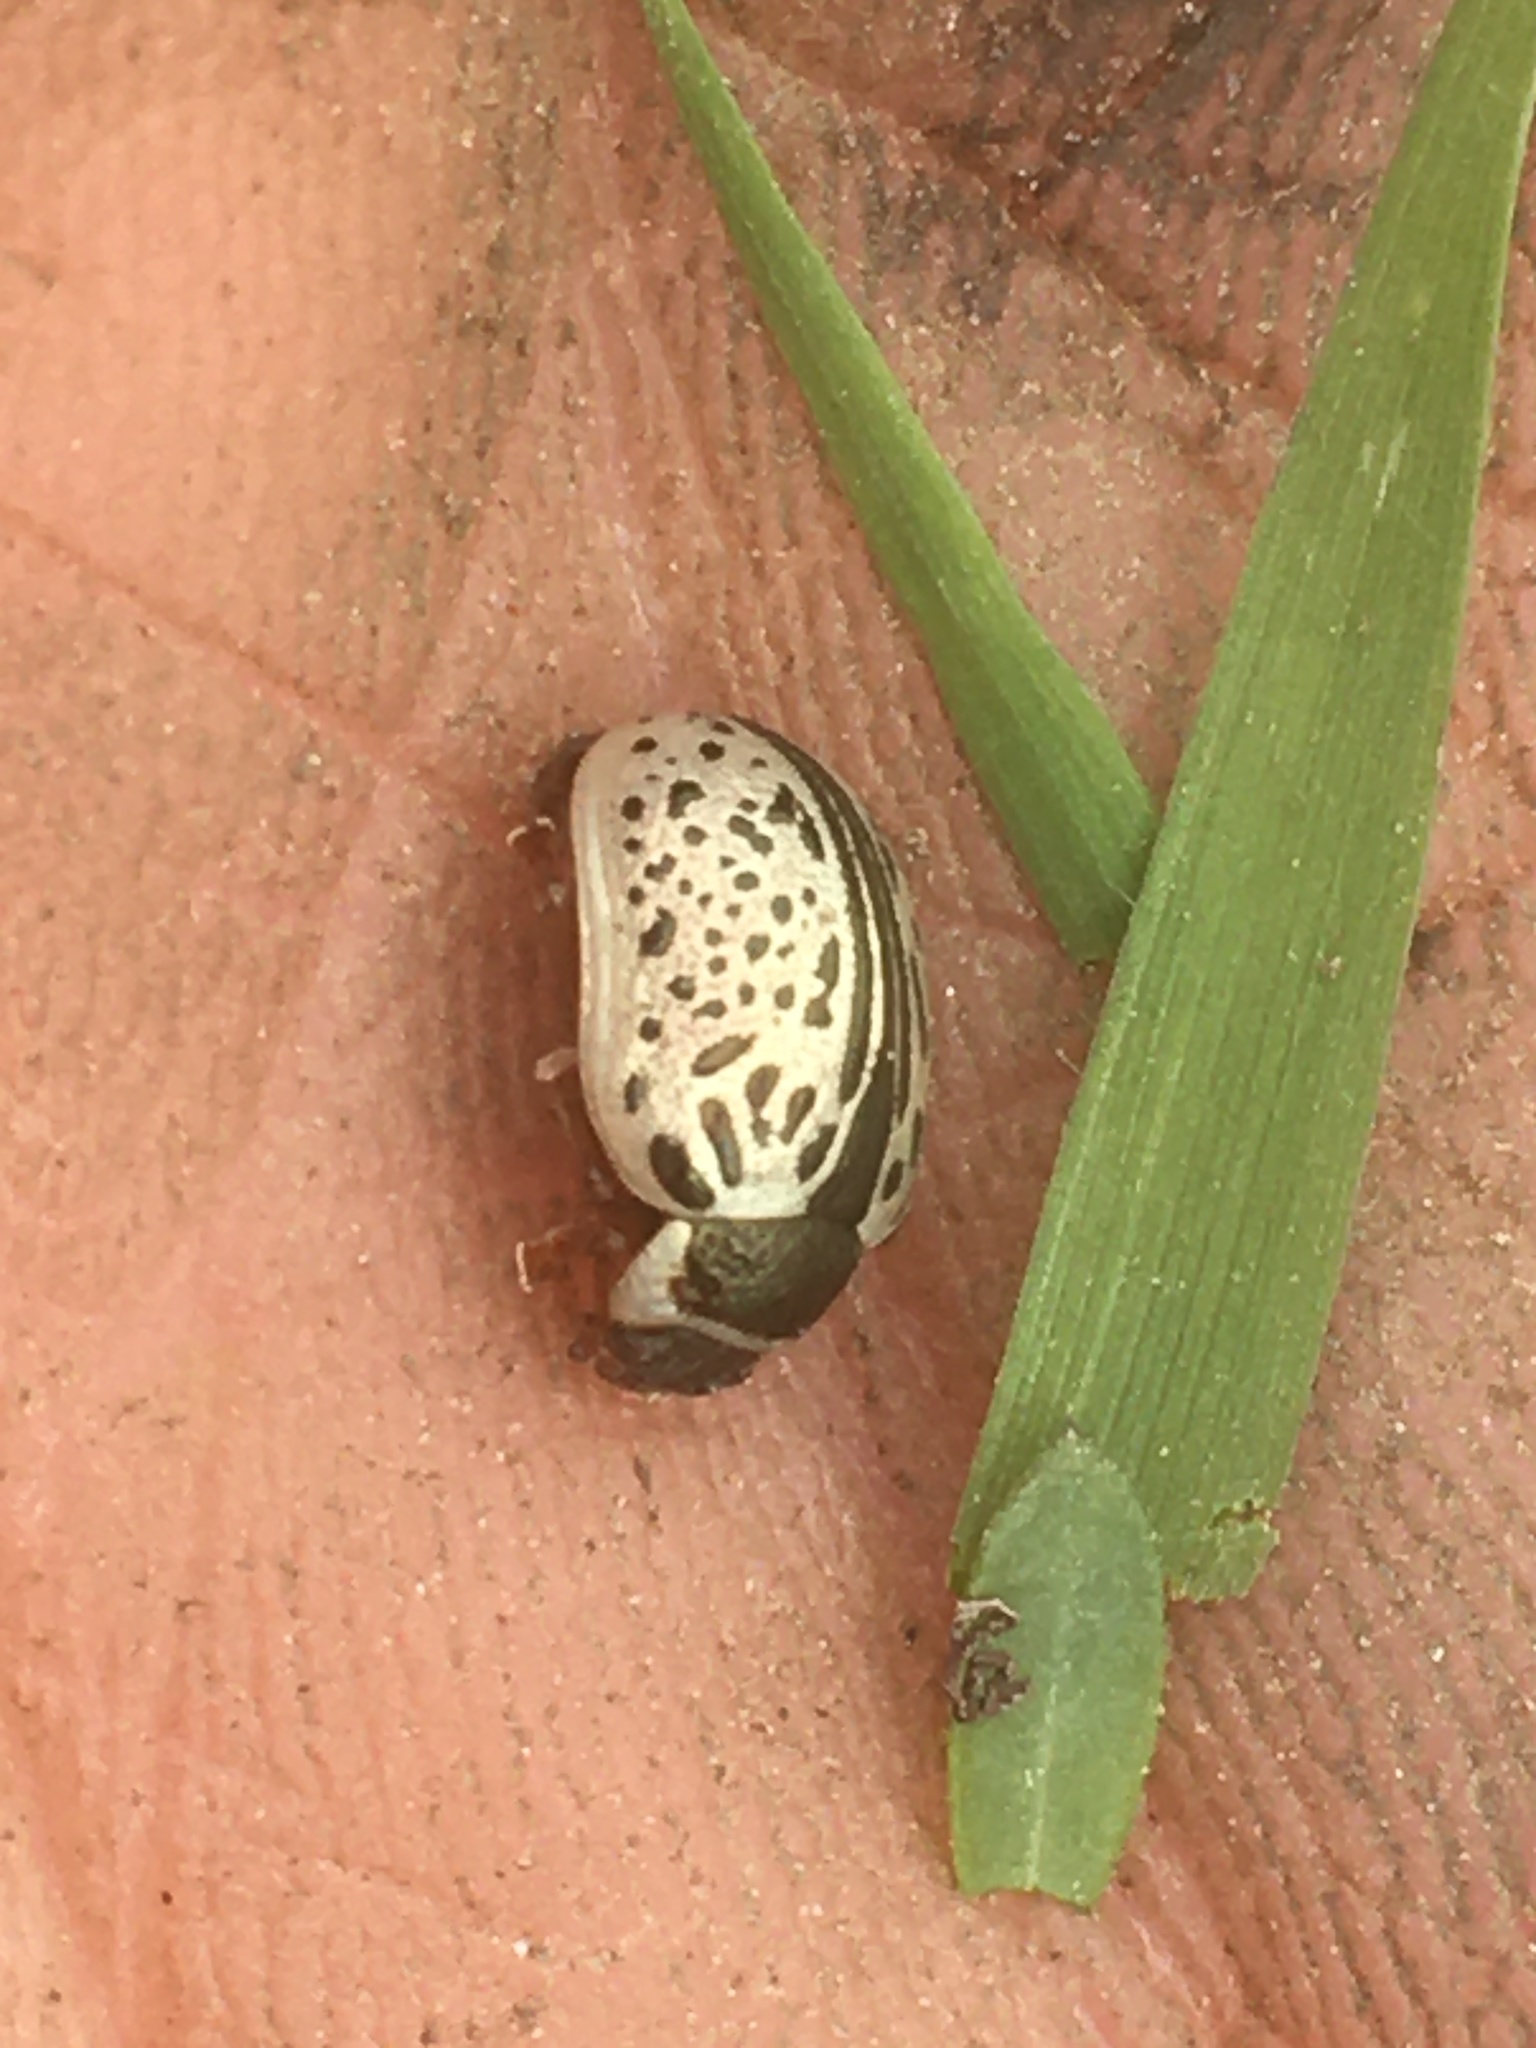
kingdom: Animalia
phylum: Arthropoda
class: Insecta
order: Coleoptera
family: Chrysomelidae
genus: Calligrapha
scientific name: Calligrapha multipunctata
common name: Common willow calligrapher beetle
